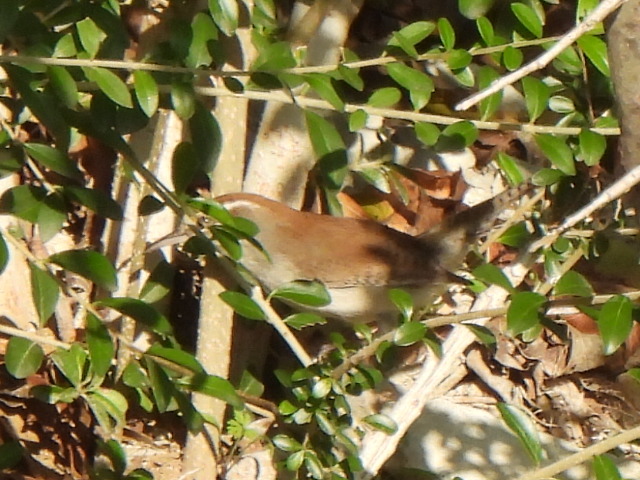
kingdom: Animalia
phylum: Chordata
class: Aves
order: Passeriformes
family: Troglodytidae
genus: Thryomanes
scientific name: Thryomanes bewickii
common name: Bewick's wren
